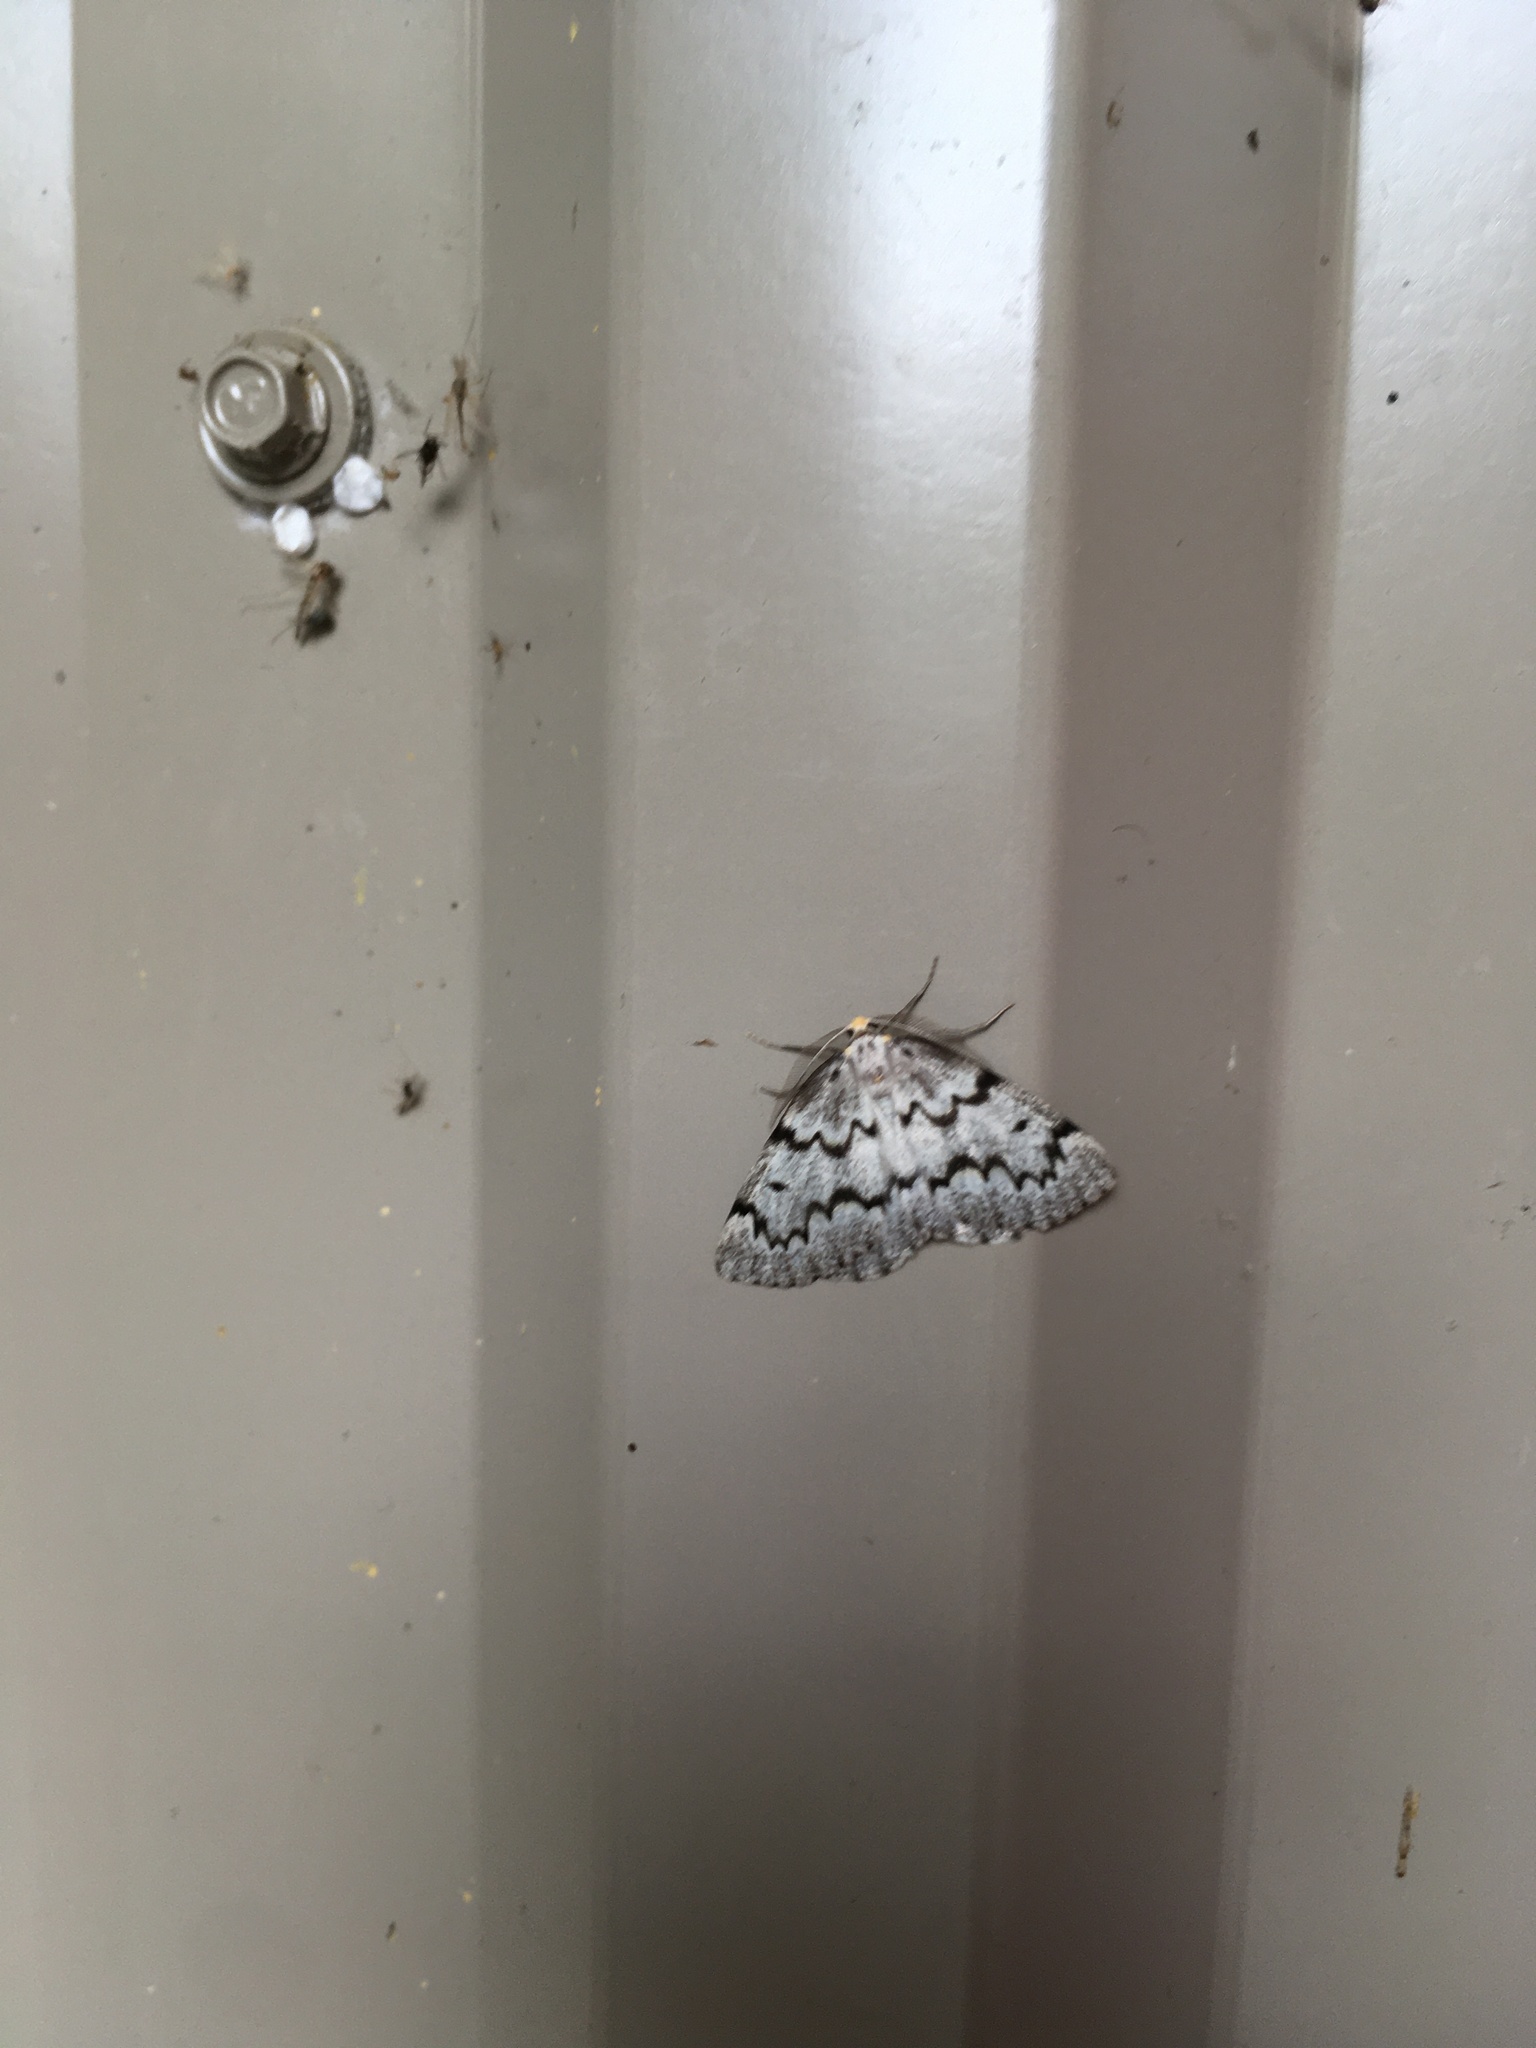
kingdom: Animalia
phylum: Arthropoda
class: Insecta
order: Lepidoptera
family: Geometridae
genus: Nepytia
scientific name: Nepytia canosaria
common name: False hemlock looper
